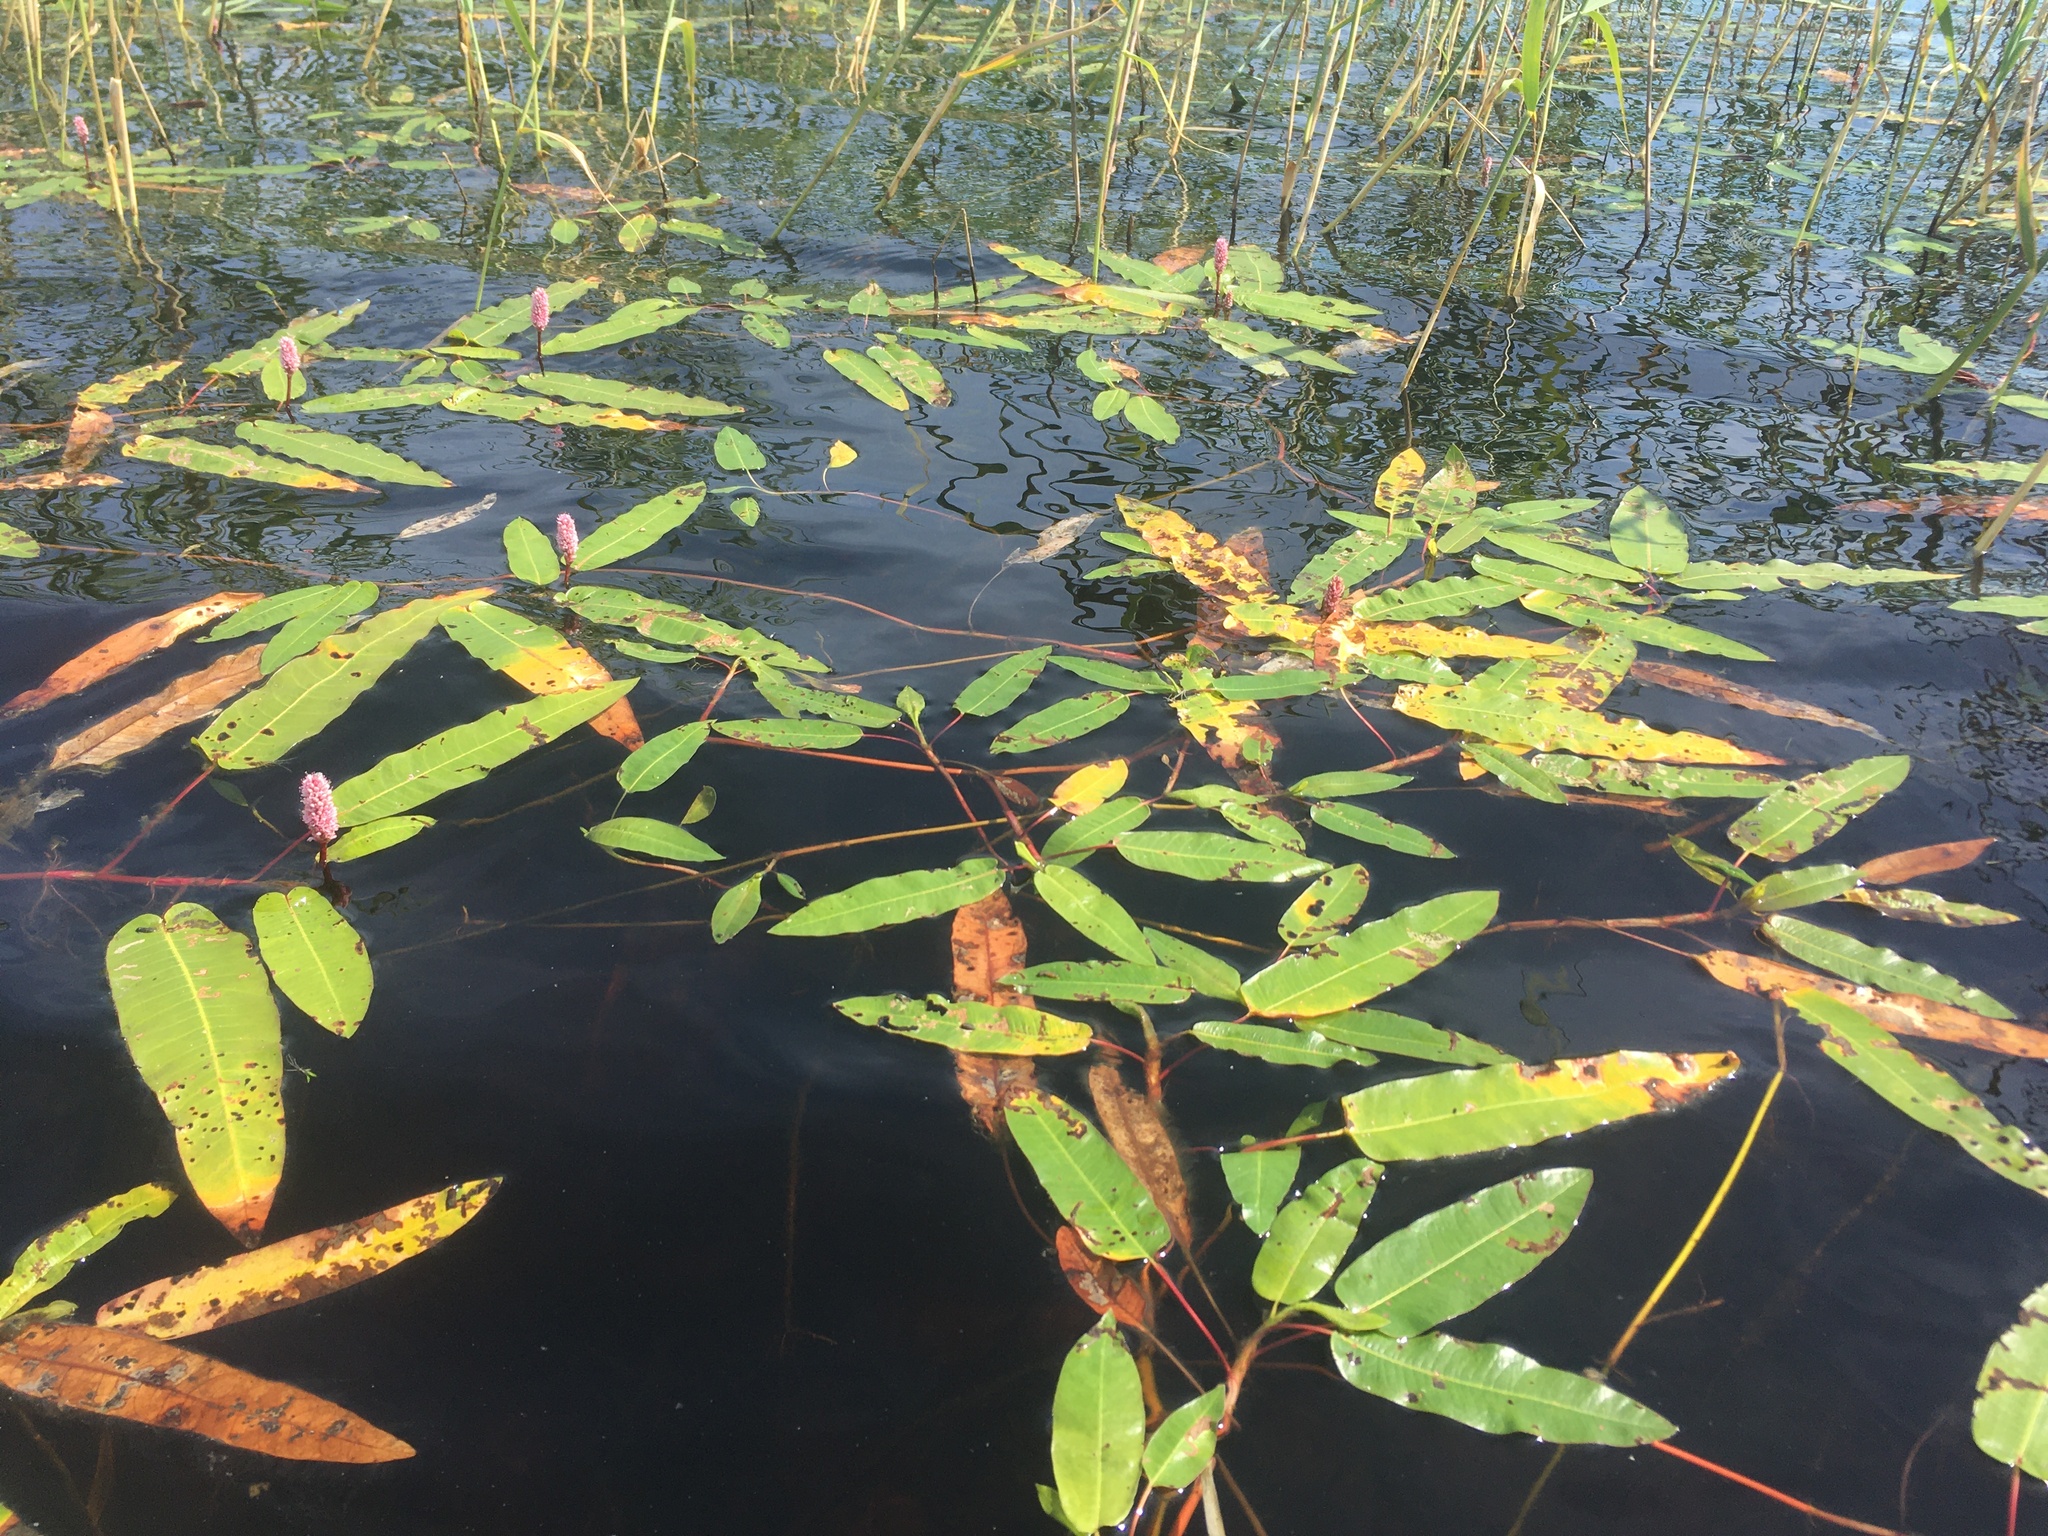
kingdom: Plantae
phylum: Tracheophyta
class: Magnoliopsida
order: Caryophyllales
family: Polygonaceae
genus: Persicaria
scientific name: Persicaria amphibia
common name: Amphibious bistort
